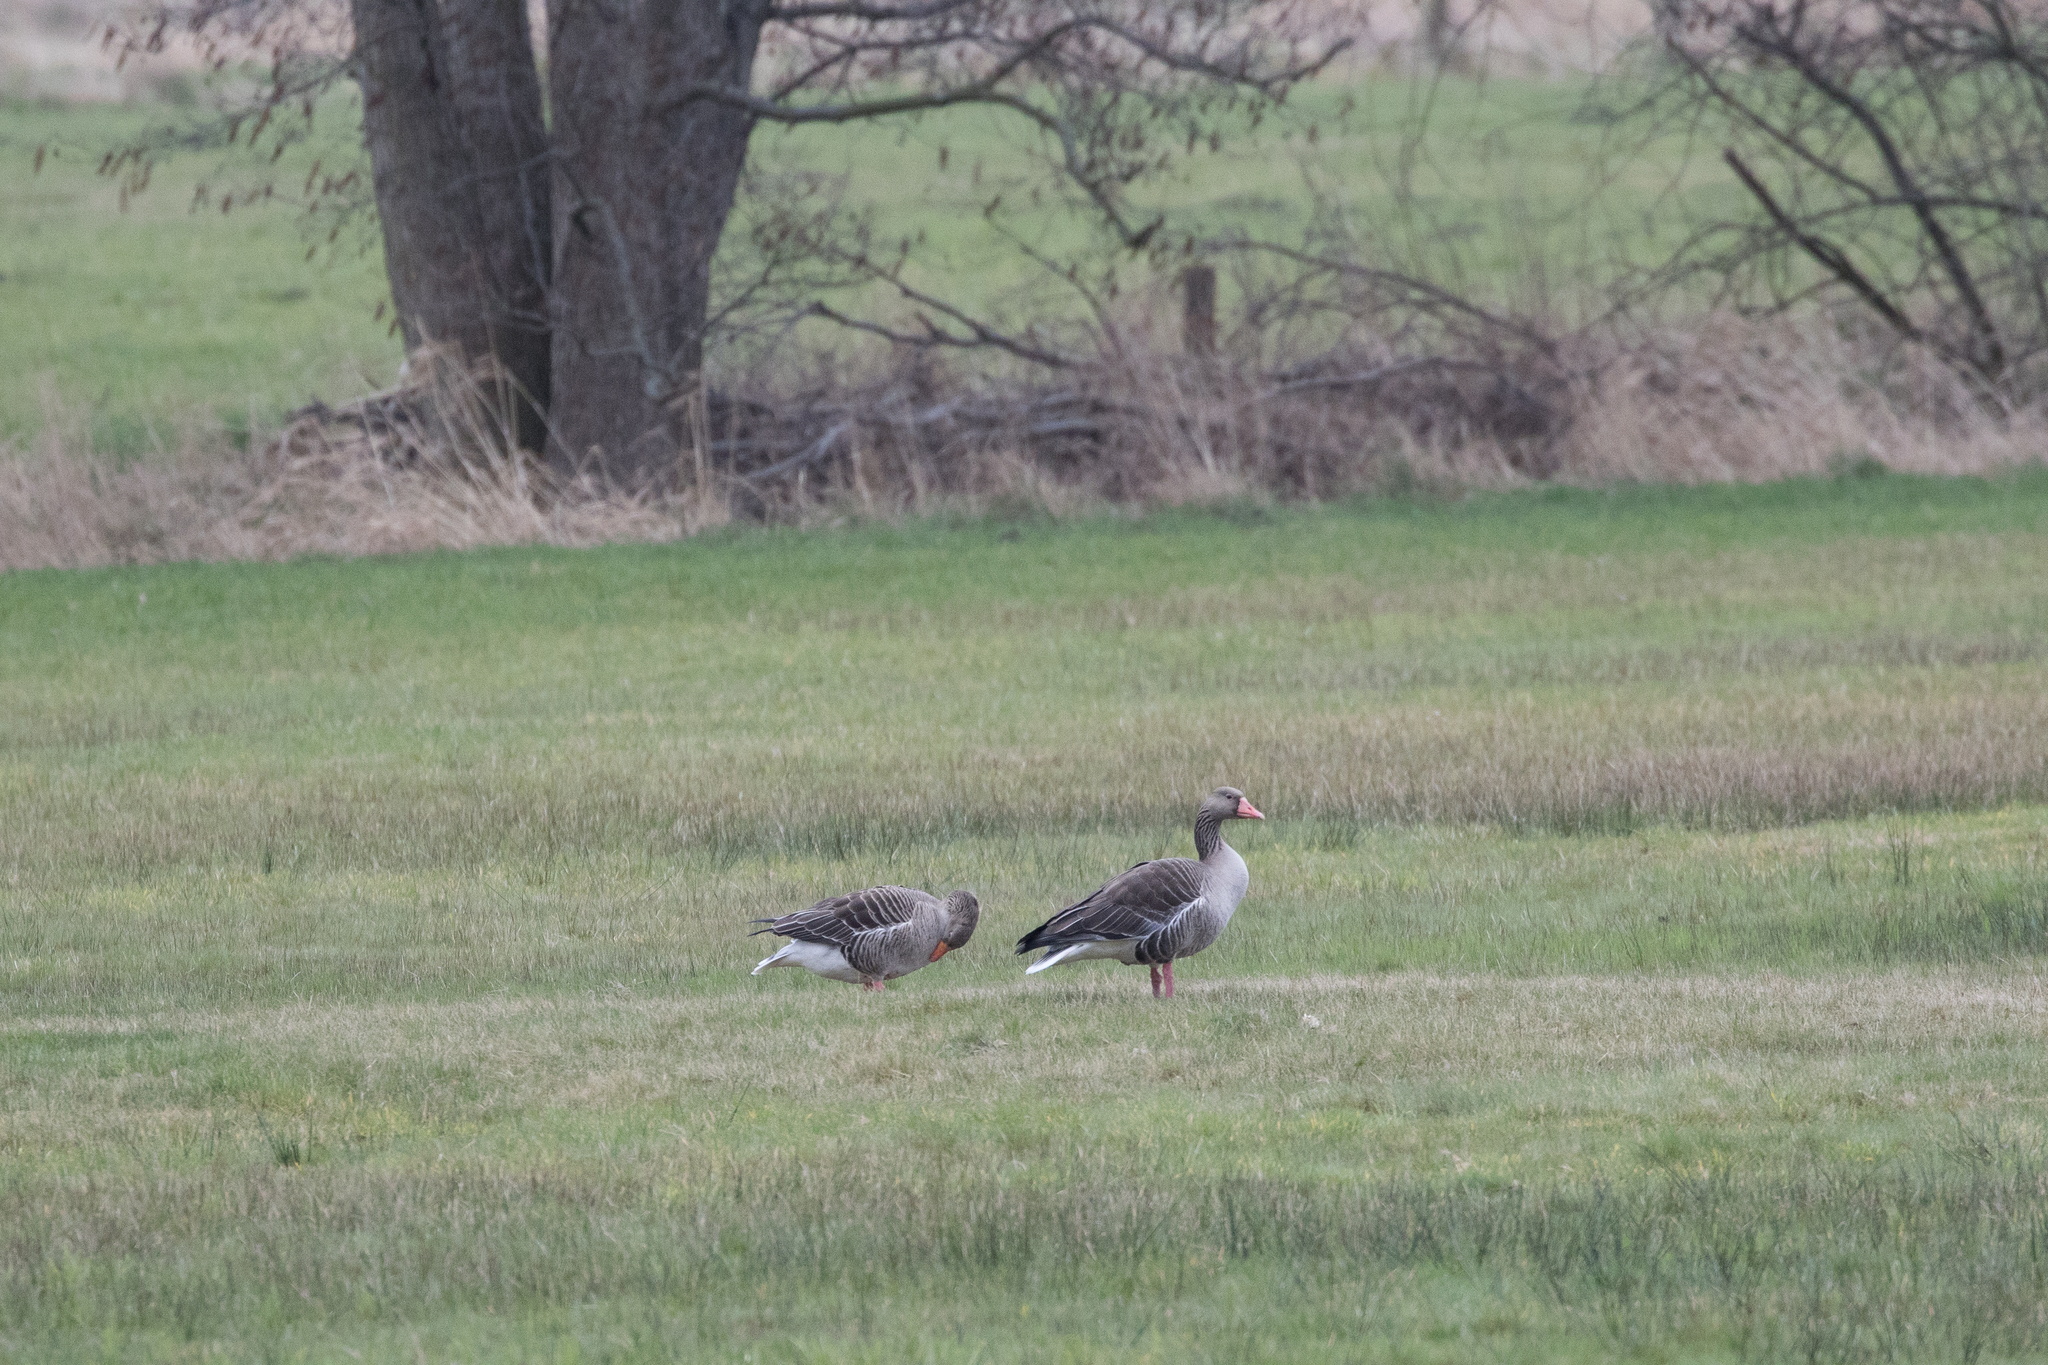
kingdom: Animalia
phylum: Chordata
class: Aves
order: Anseriformes
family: Anatidae
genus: Anser
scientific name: Anser anser
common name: Greylag goose
